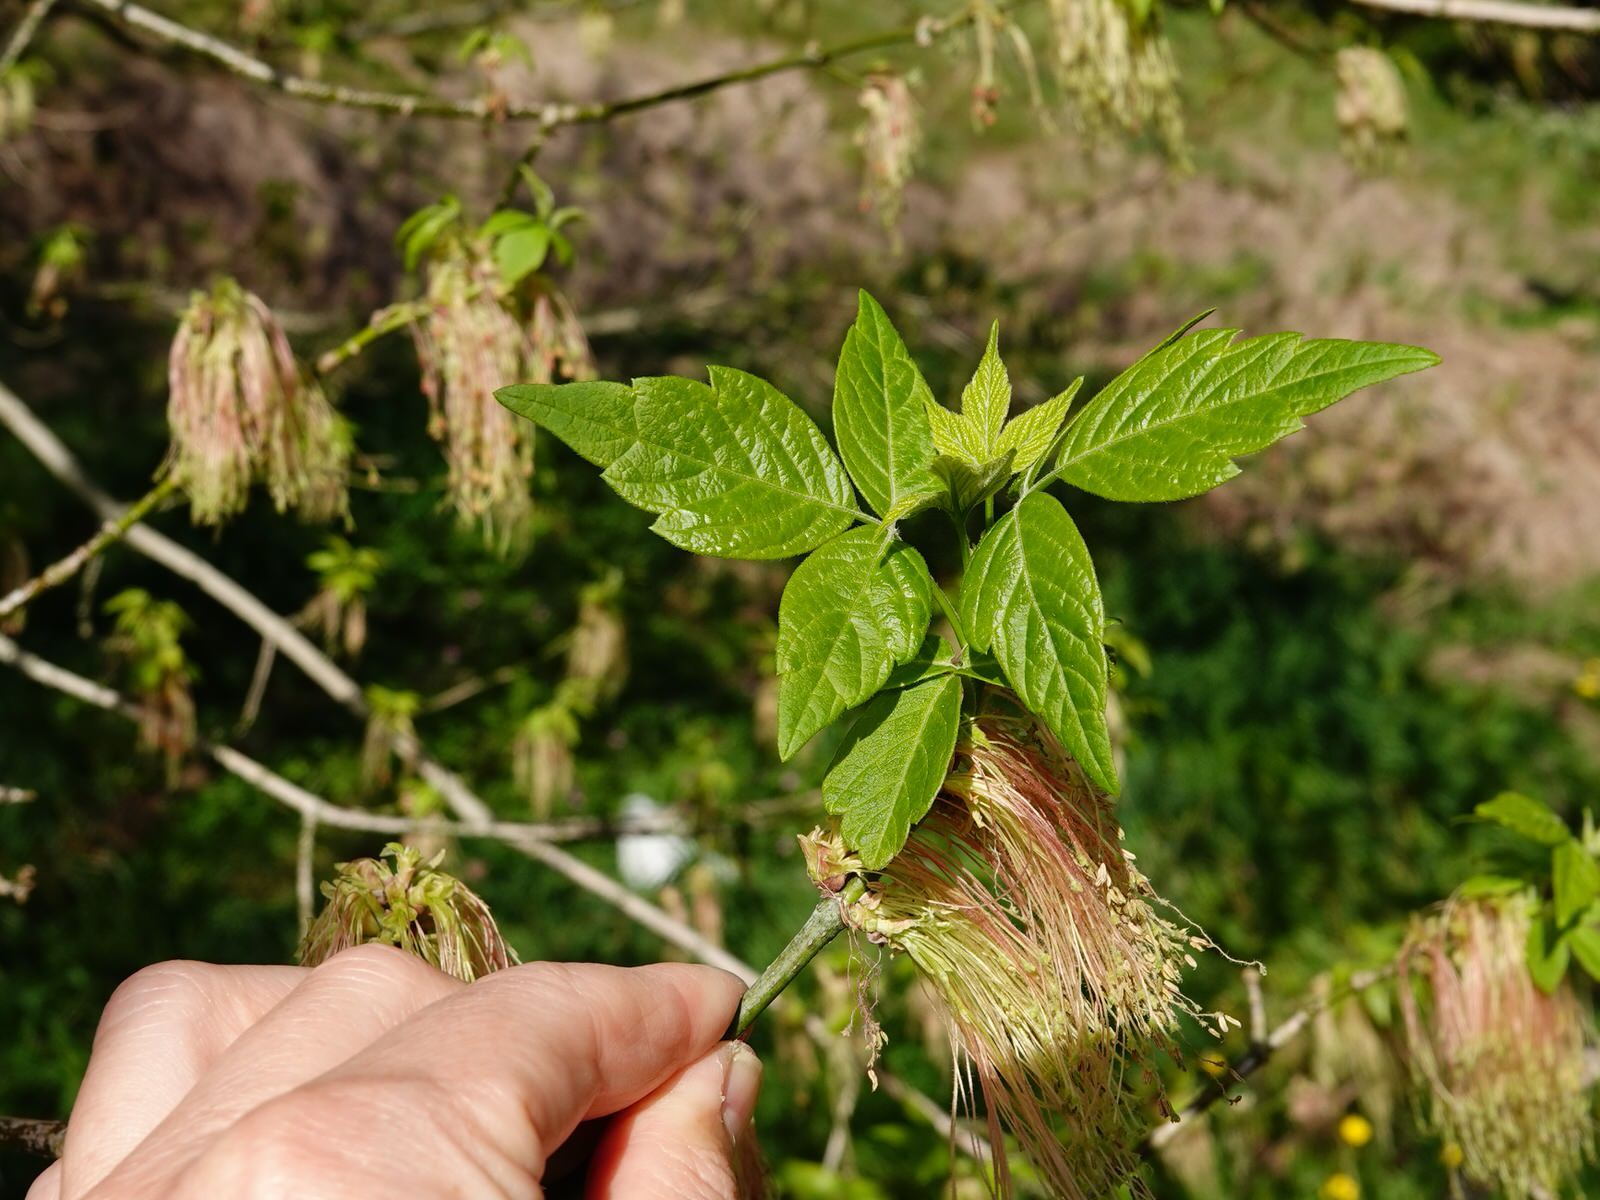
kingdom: Plantae
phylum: Tracheophyta
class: Magnoliopsida
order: Sapindales
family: Sapindaceae
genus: Acer
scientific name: Acer negundo
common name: Ashleaf maple
